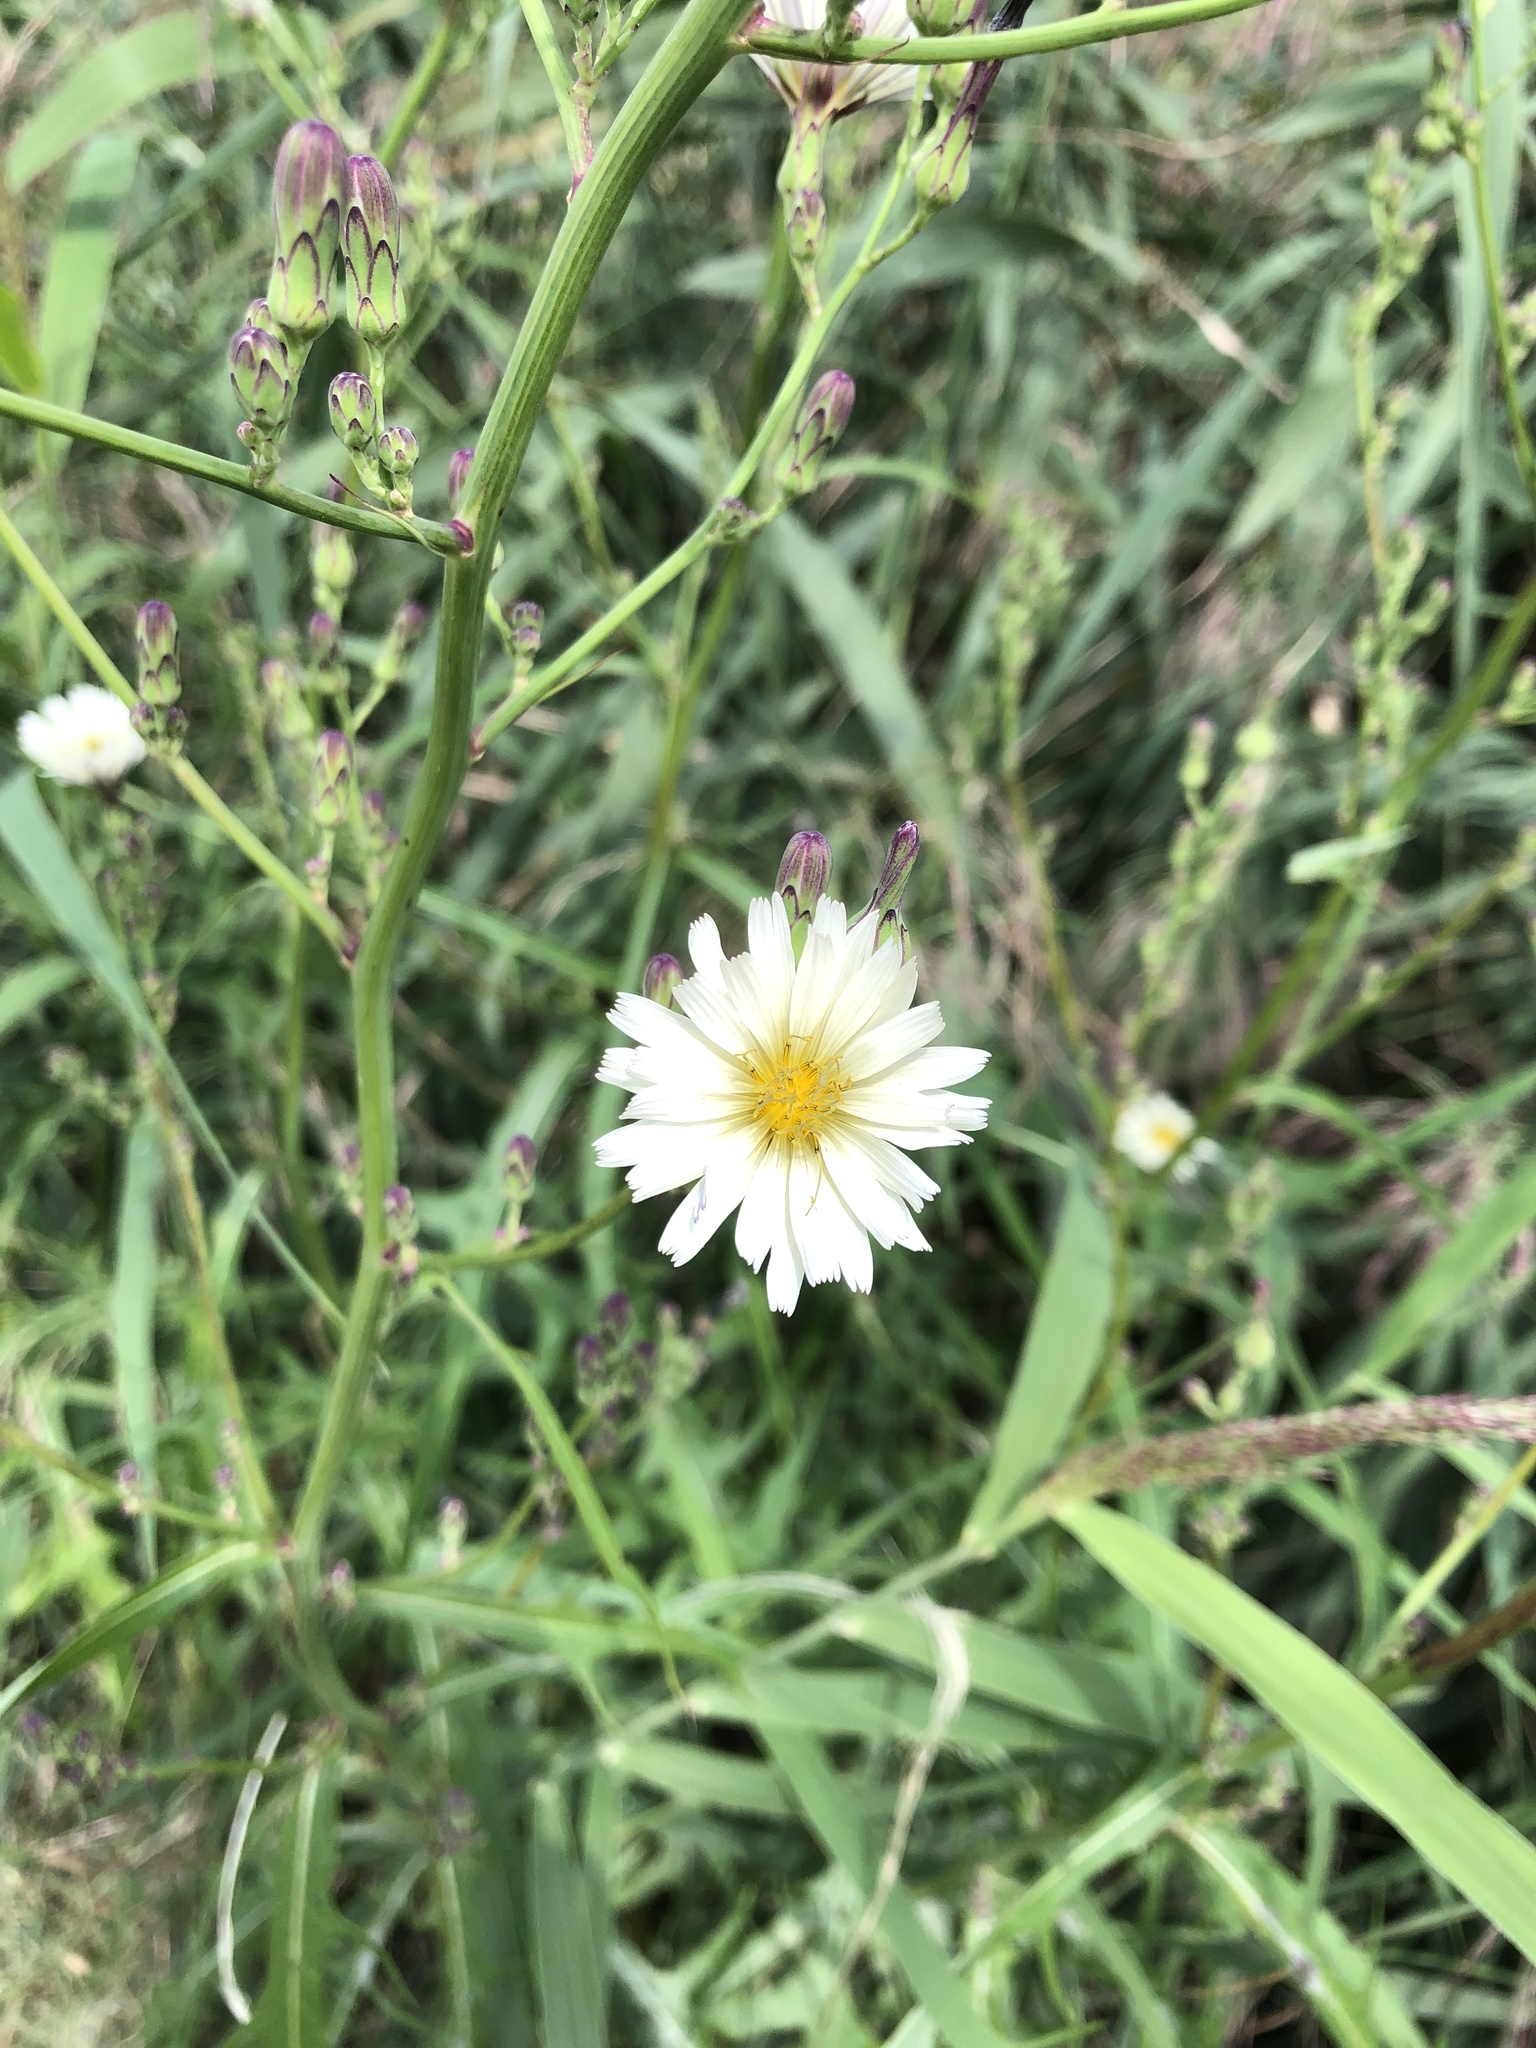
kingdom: Plantae
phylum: Tracheophyta
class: Magnoliopsida
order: Asterales
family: Asteraceae
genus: Lactuca
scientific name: Lactuca indica
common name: Wild lettuce
